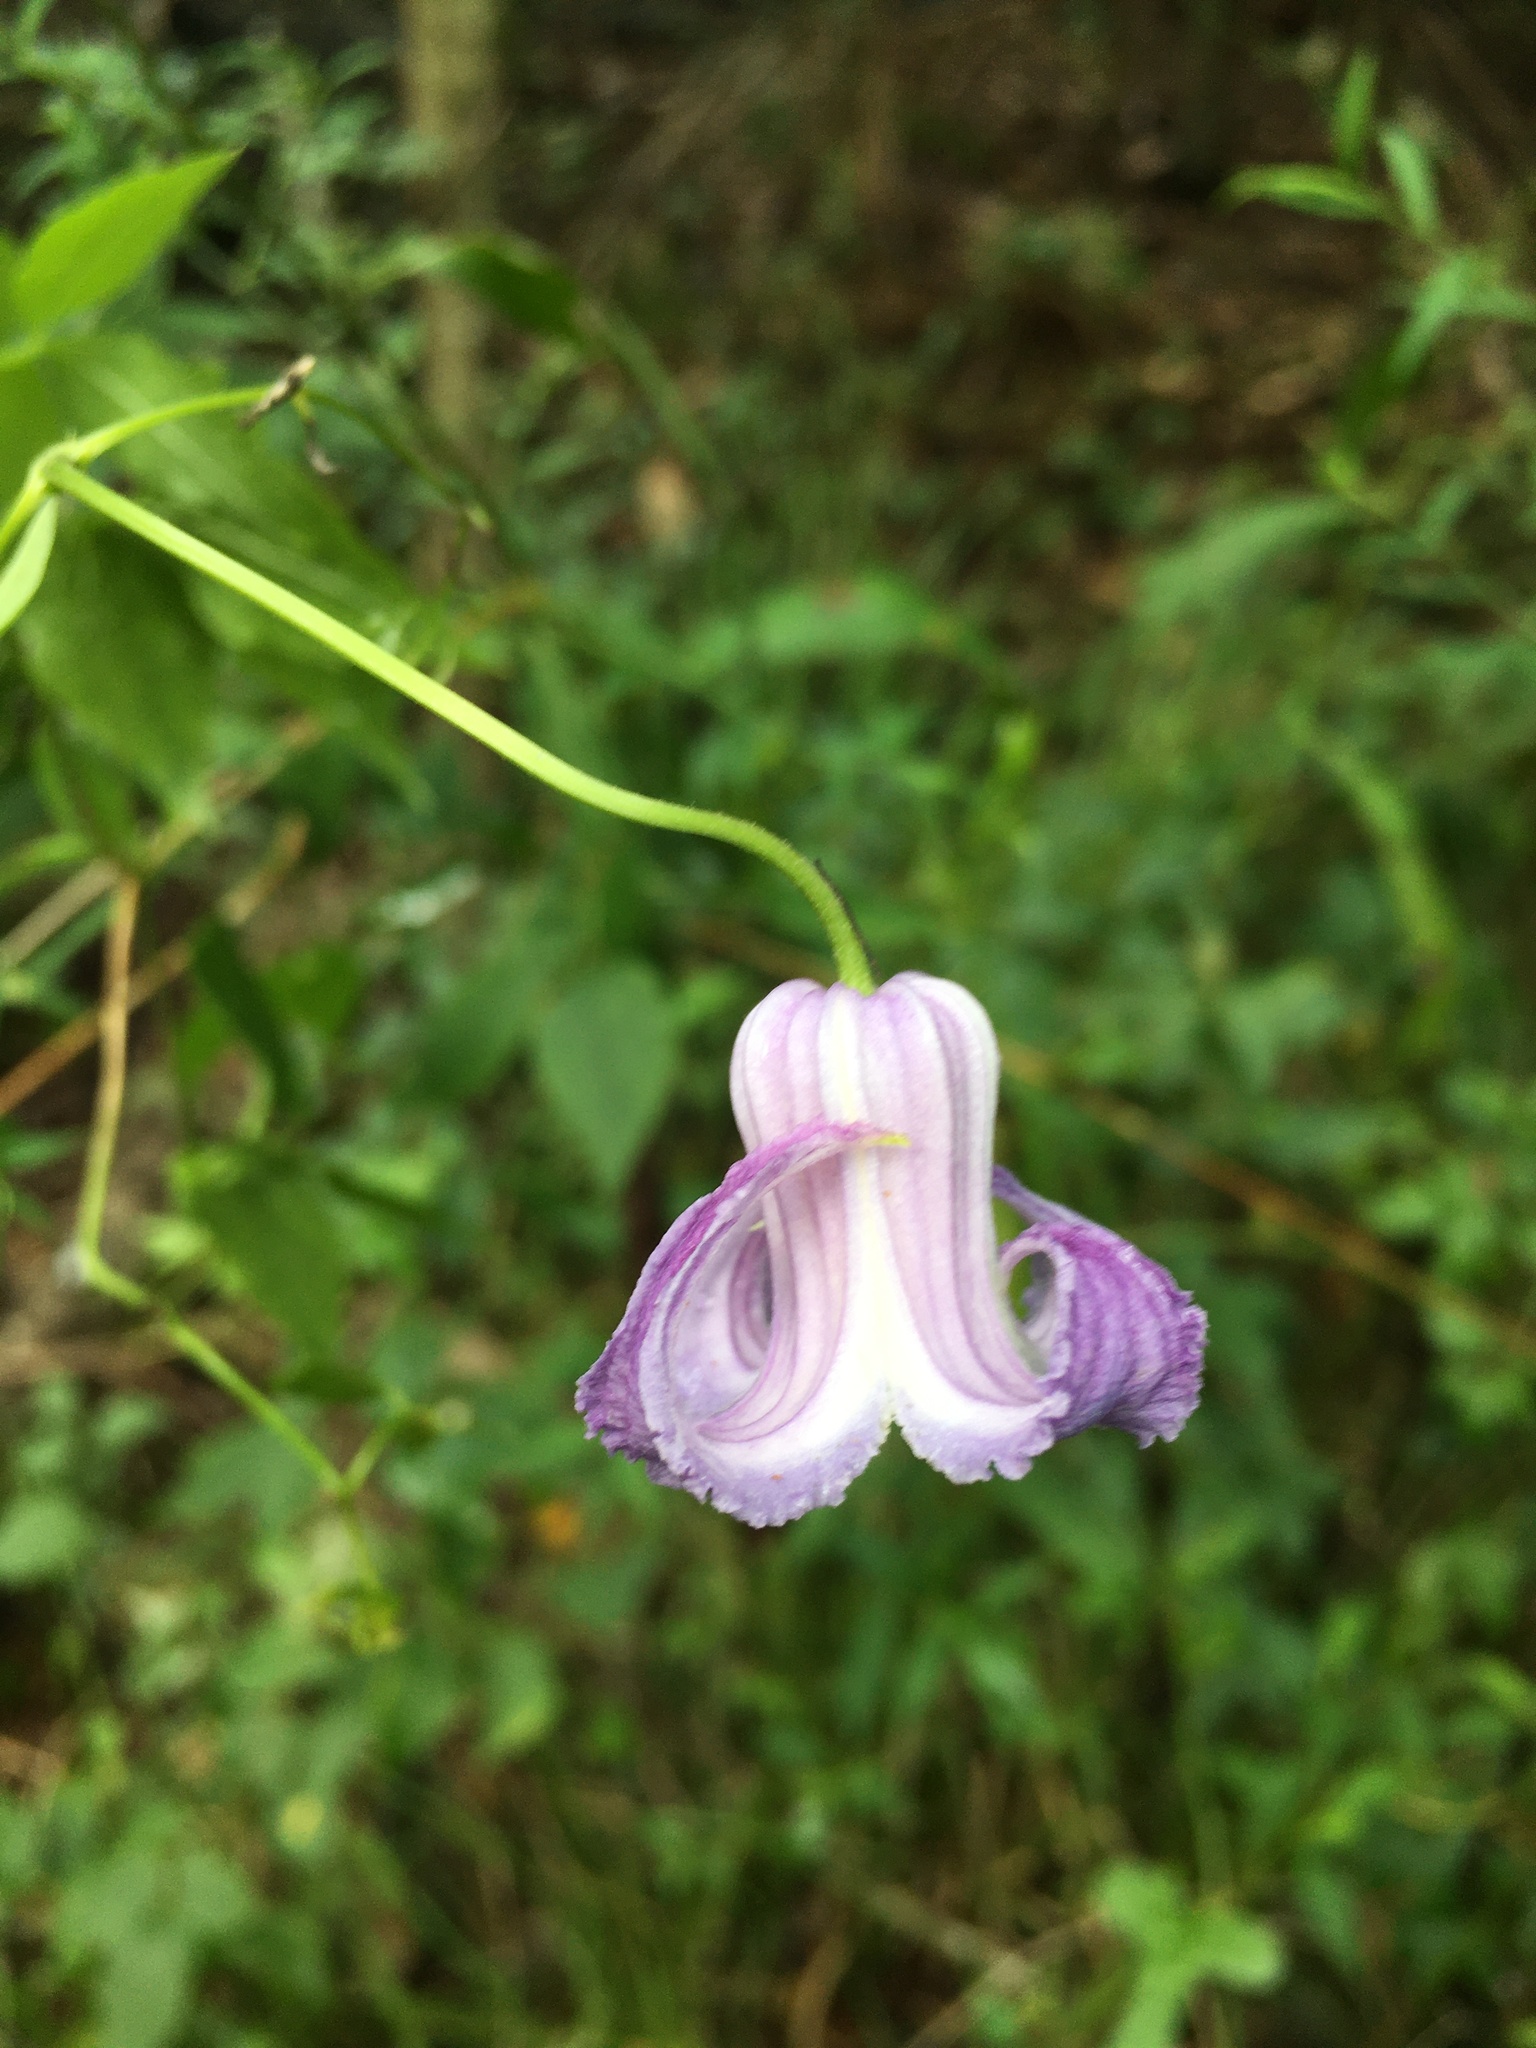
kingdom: Plantae
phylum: Tracheophyta
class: Magnoliopsida
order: Ranunculales
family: Ranunculaceae
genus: Clematis
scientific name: Clematis crispa
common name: Curly clematis
